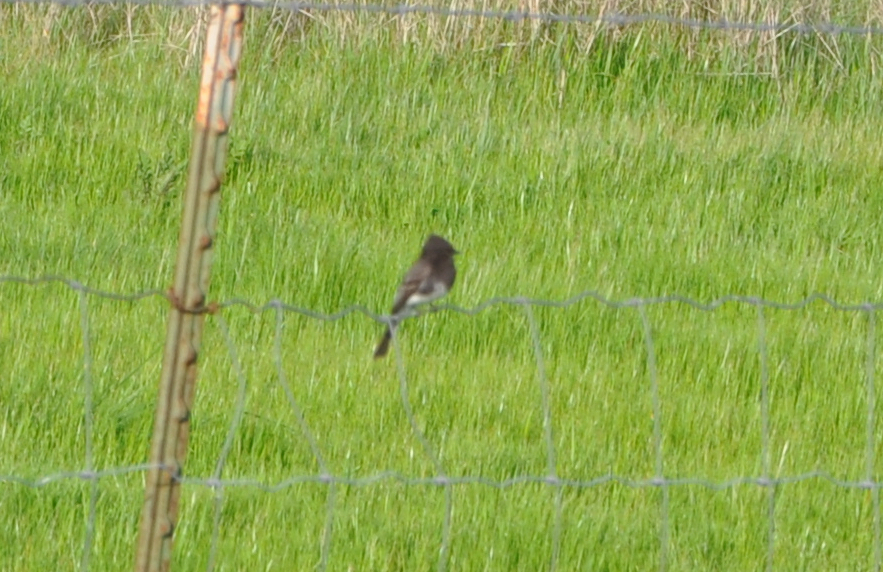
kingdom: Animalia
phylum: Chordata
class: Aves
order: Passeriformes
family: Tyrannidae
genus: Sayornis
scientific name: Sayornis nigricans
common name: Black phoebe
